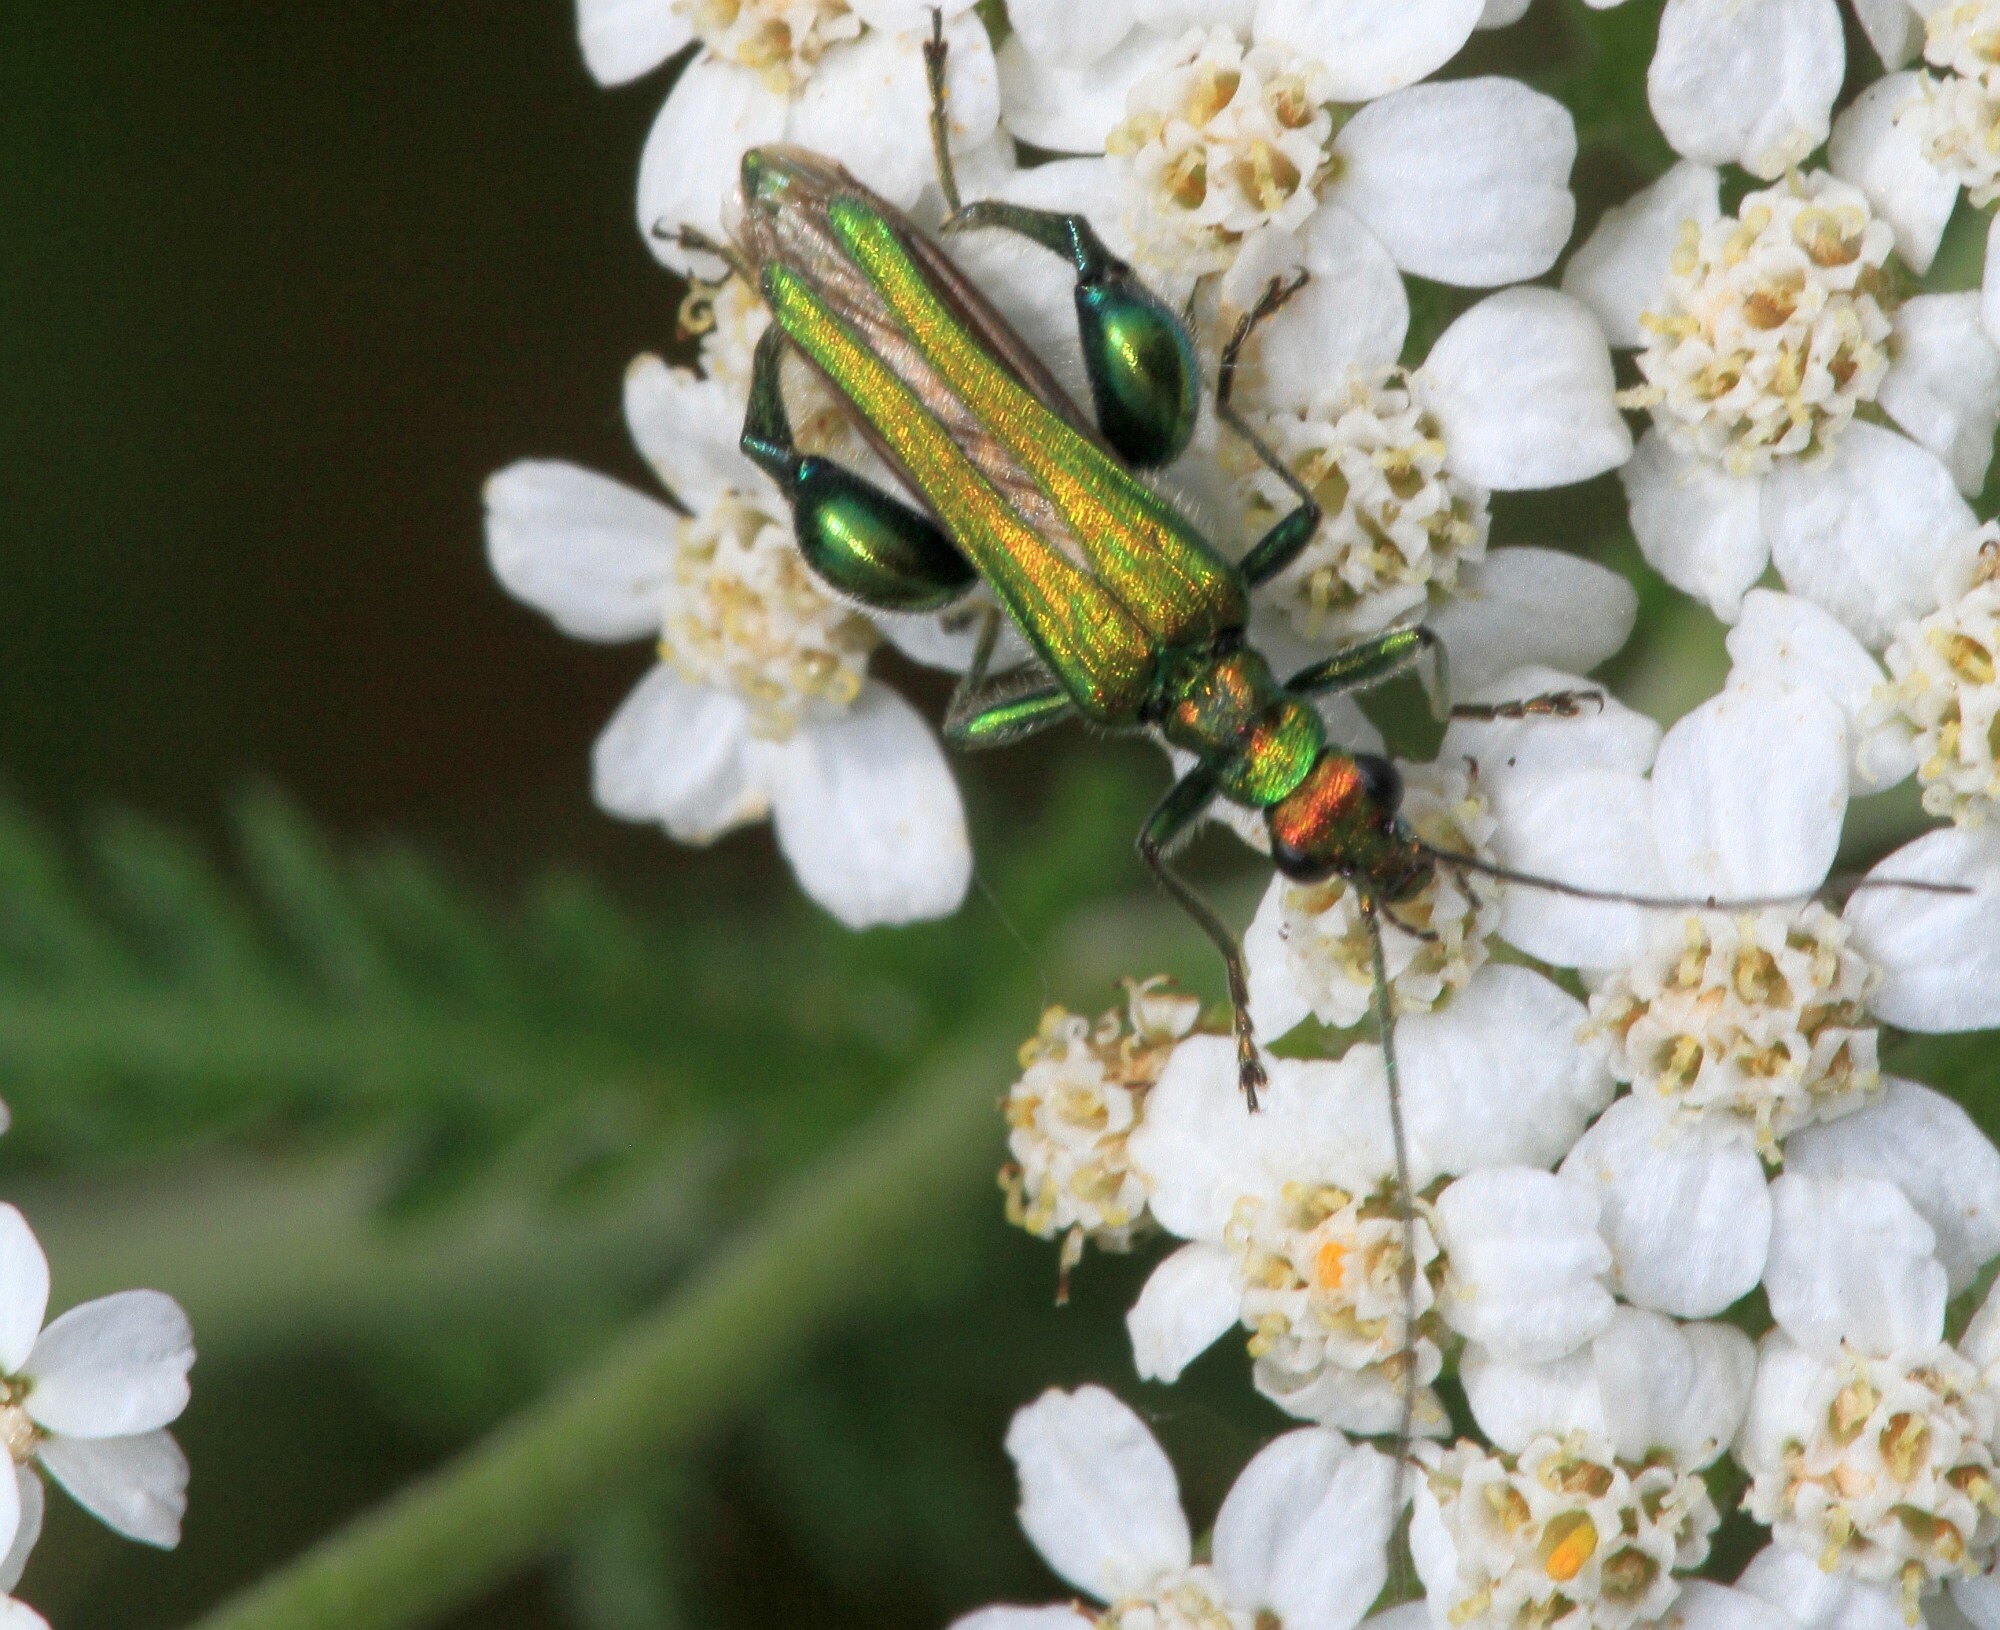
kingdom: Animalia
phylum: Arthropoda
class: Insecta
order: Coleoptera
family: Oedemeridae
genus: Oedemera
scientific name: Oedemera nobilis
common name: Swollen-thighed beetle
